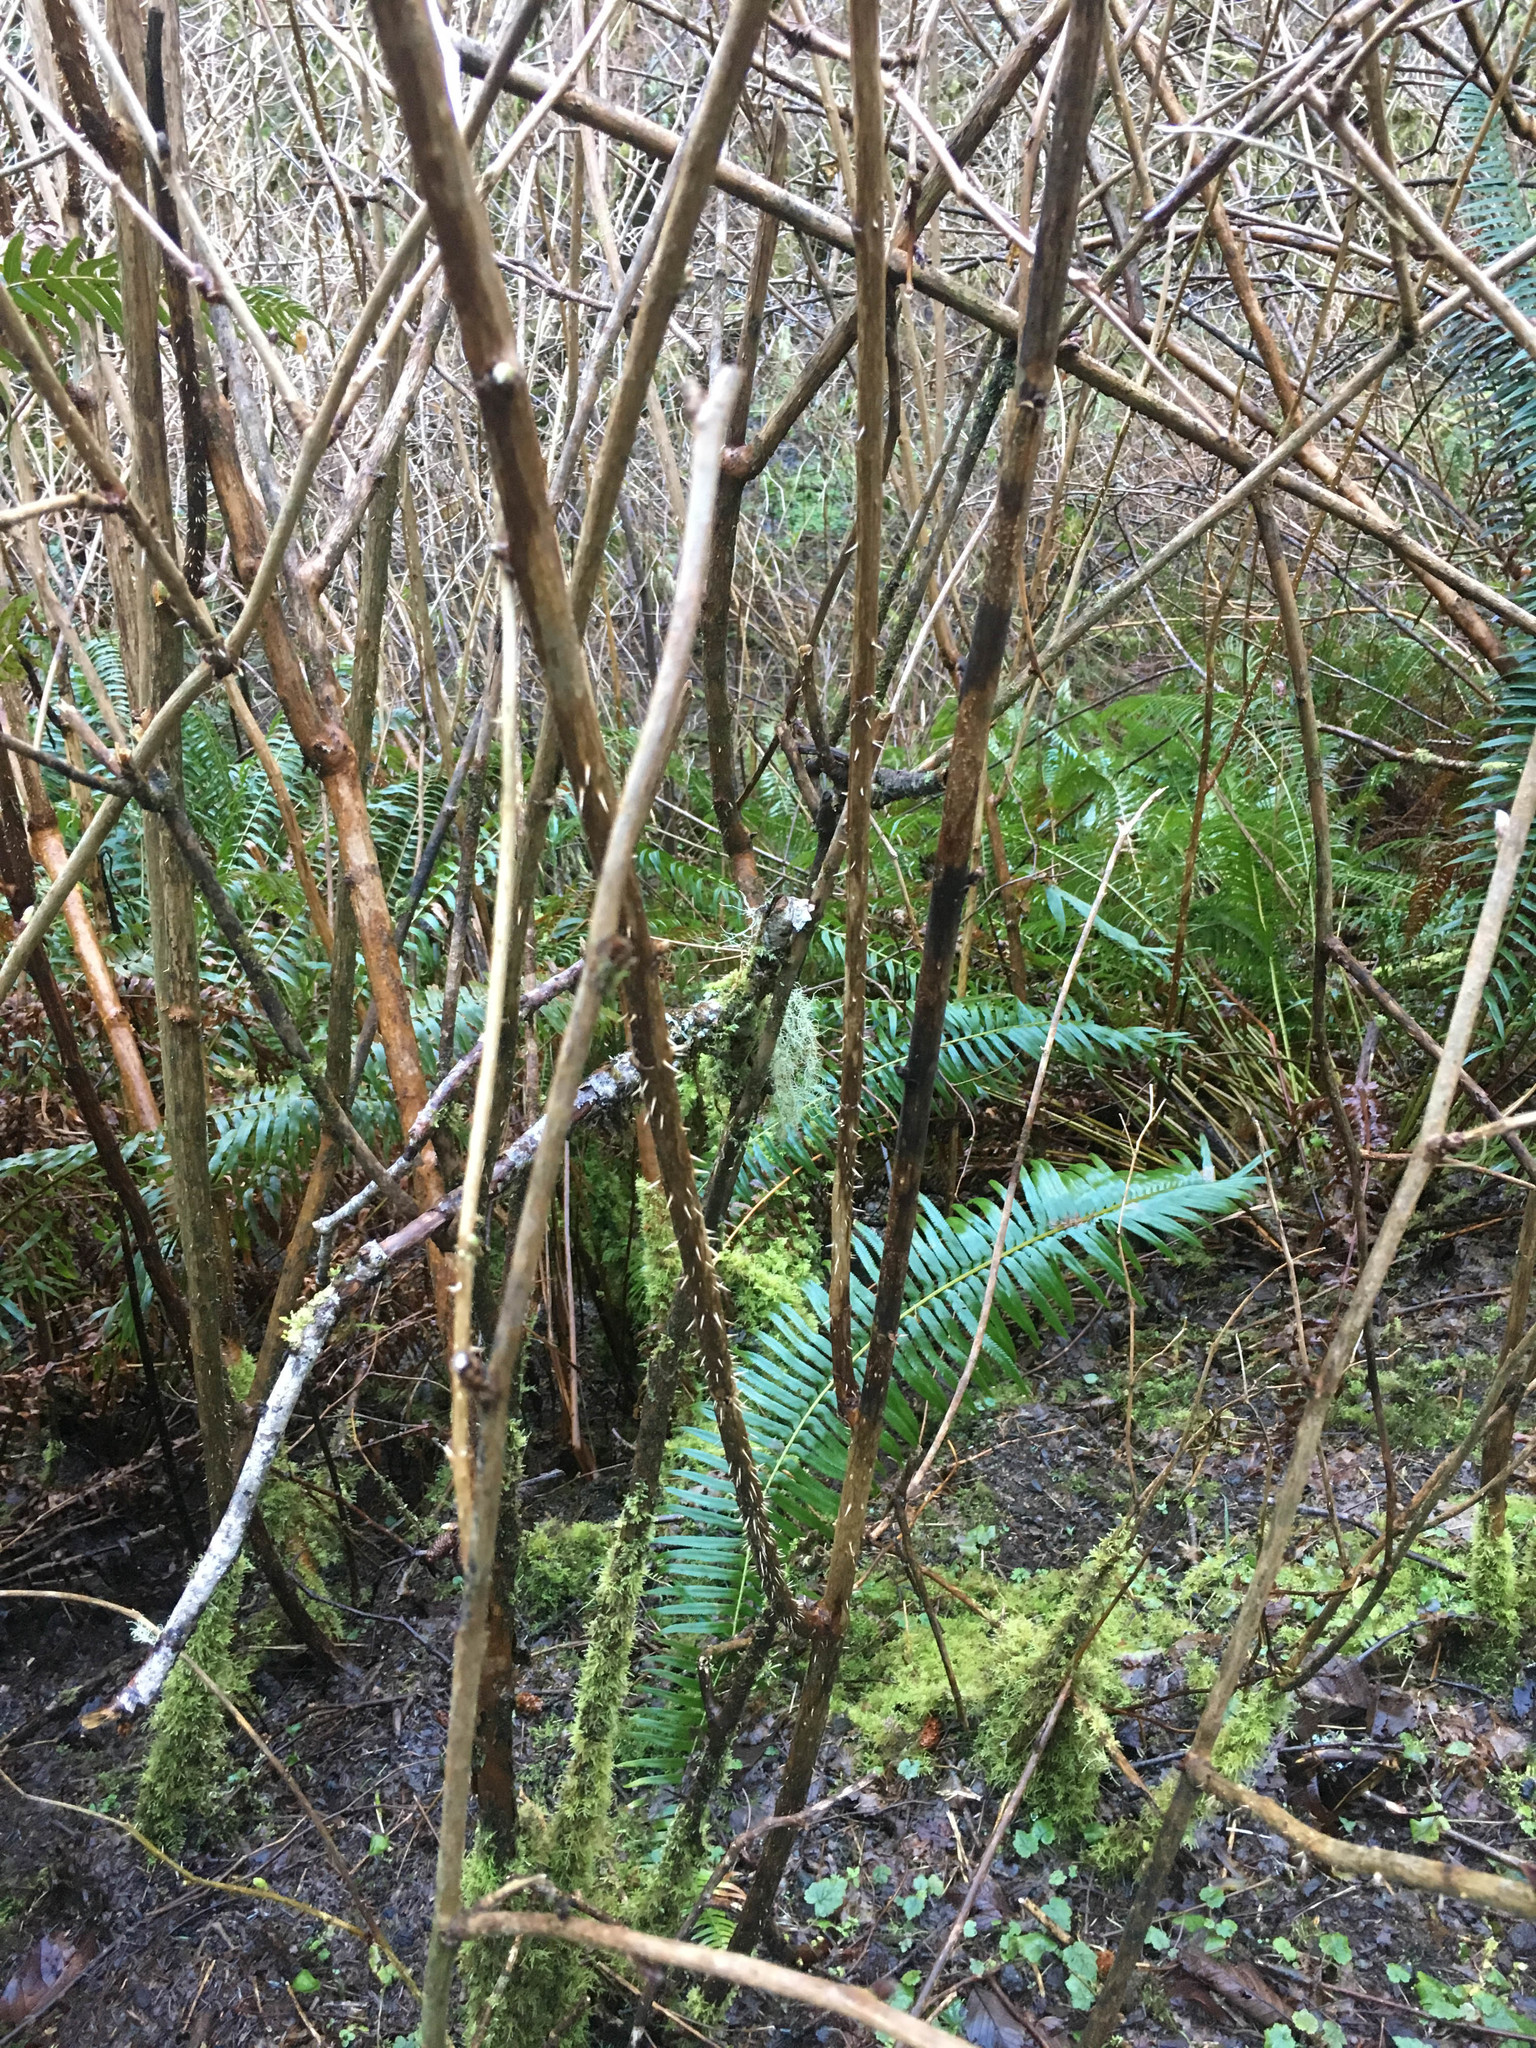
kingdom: Plantae
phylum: Tracheophyta
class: Magnoliopsida
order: Rosales
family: Rosaceae
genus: Rubus
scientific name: Rubus spectabilis
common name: Salmonberry
